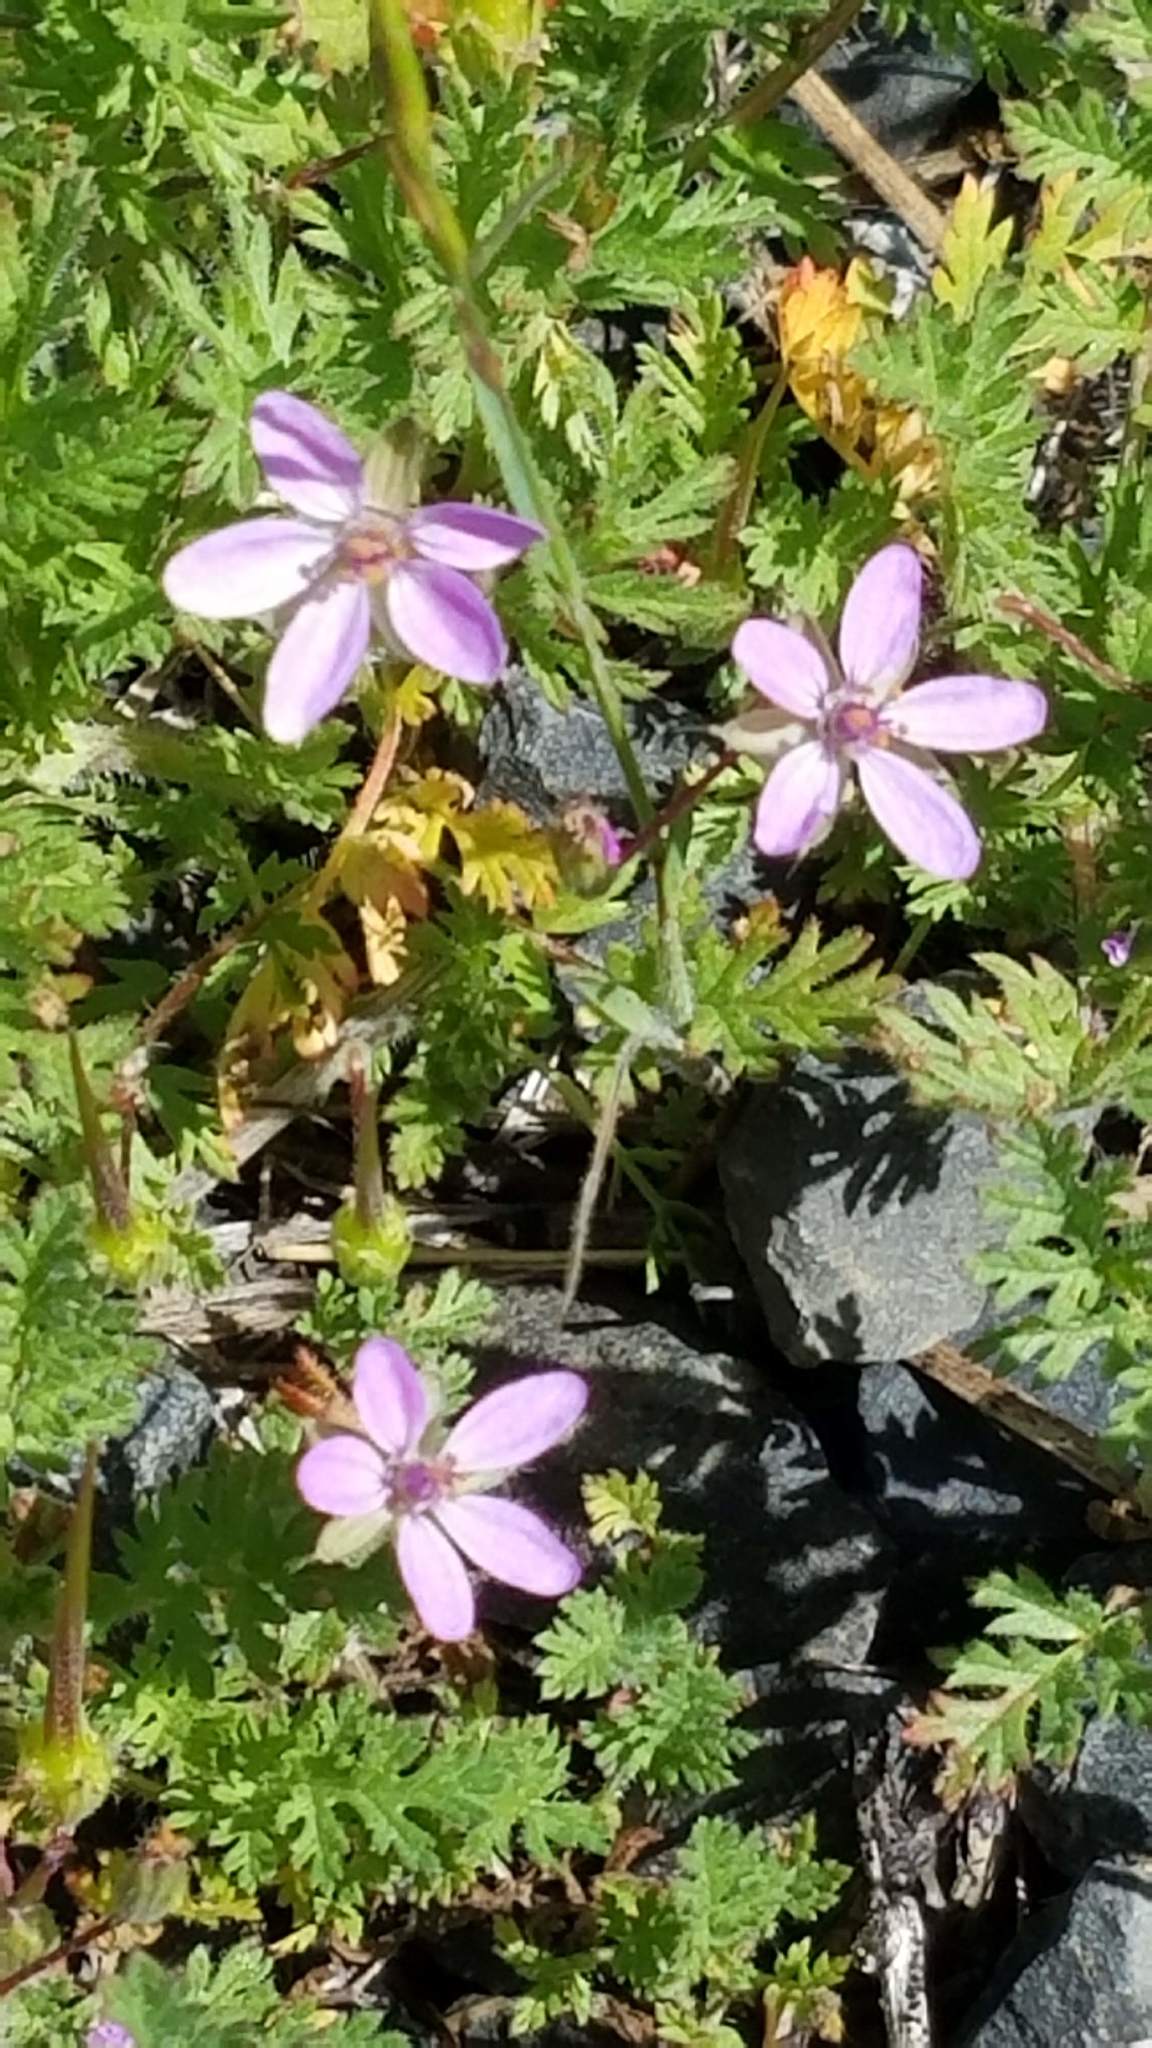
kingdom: Plantae
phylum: Tracheophyta
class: Magnoliopsida
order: Geraniales
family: Geraniaceae
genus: Erodium
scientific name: Erodium cicutarium
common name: Common stork's-bill
